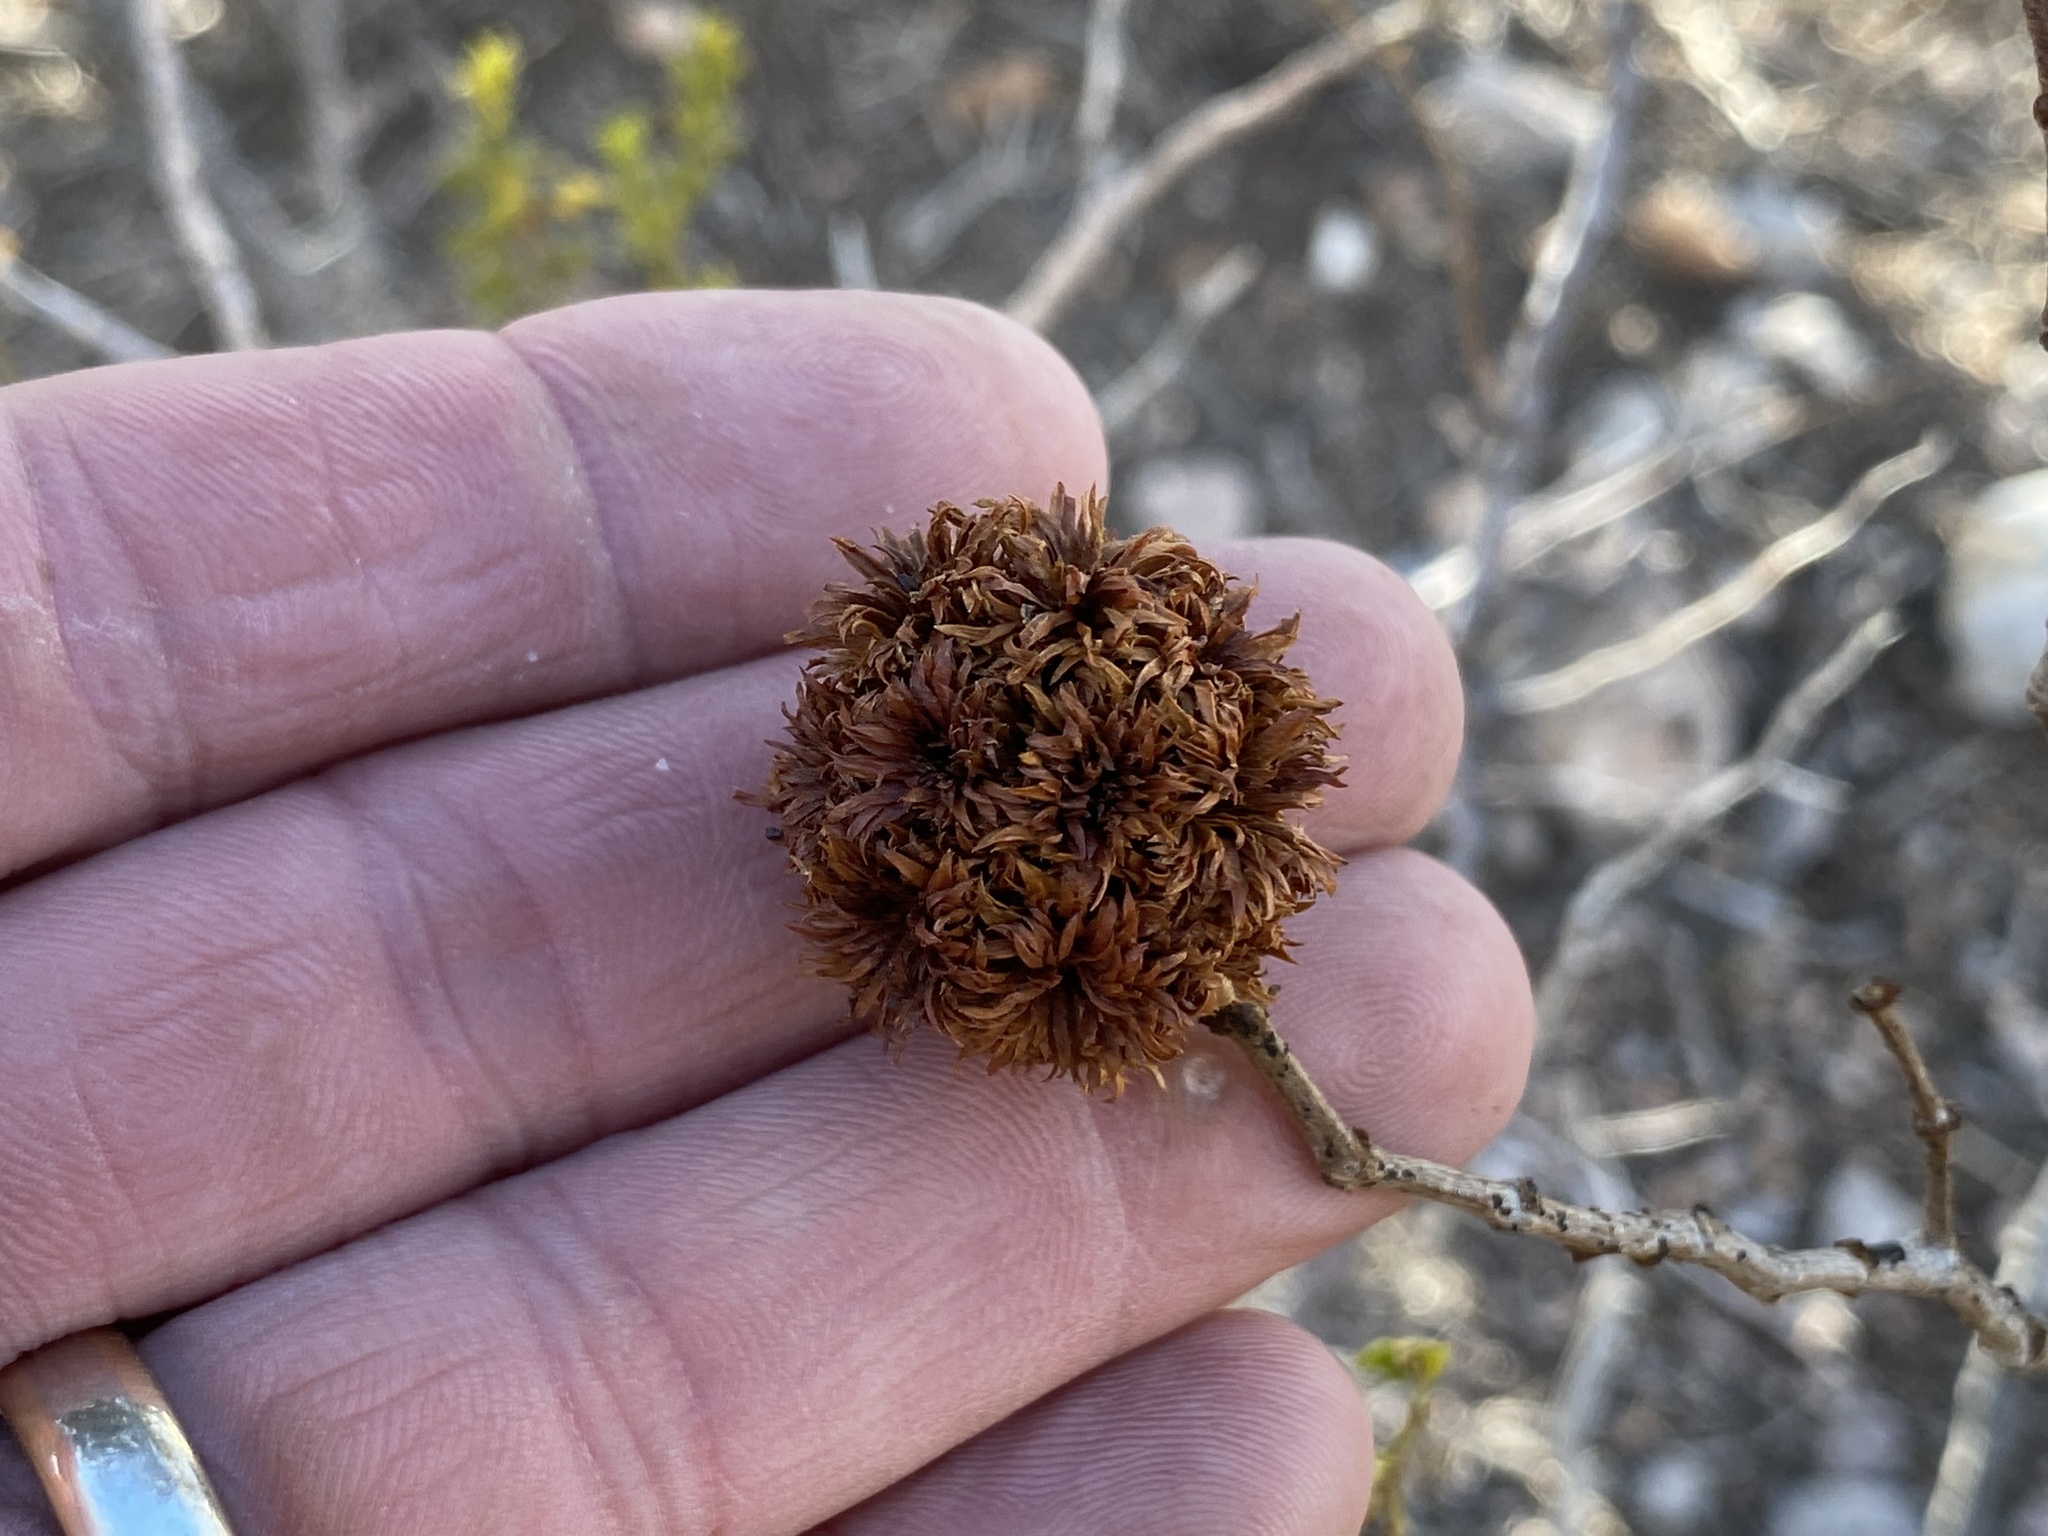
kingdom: Animalia
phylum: Arthropoda
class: Insecta
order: Diptera
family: Cecidomyiidae
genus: Asphondylia
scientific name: Asphondylia auripila
